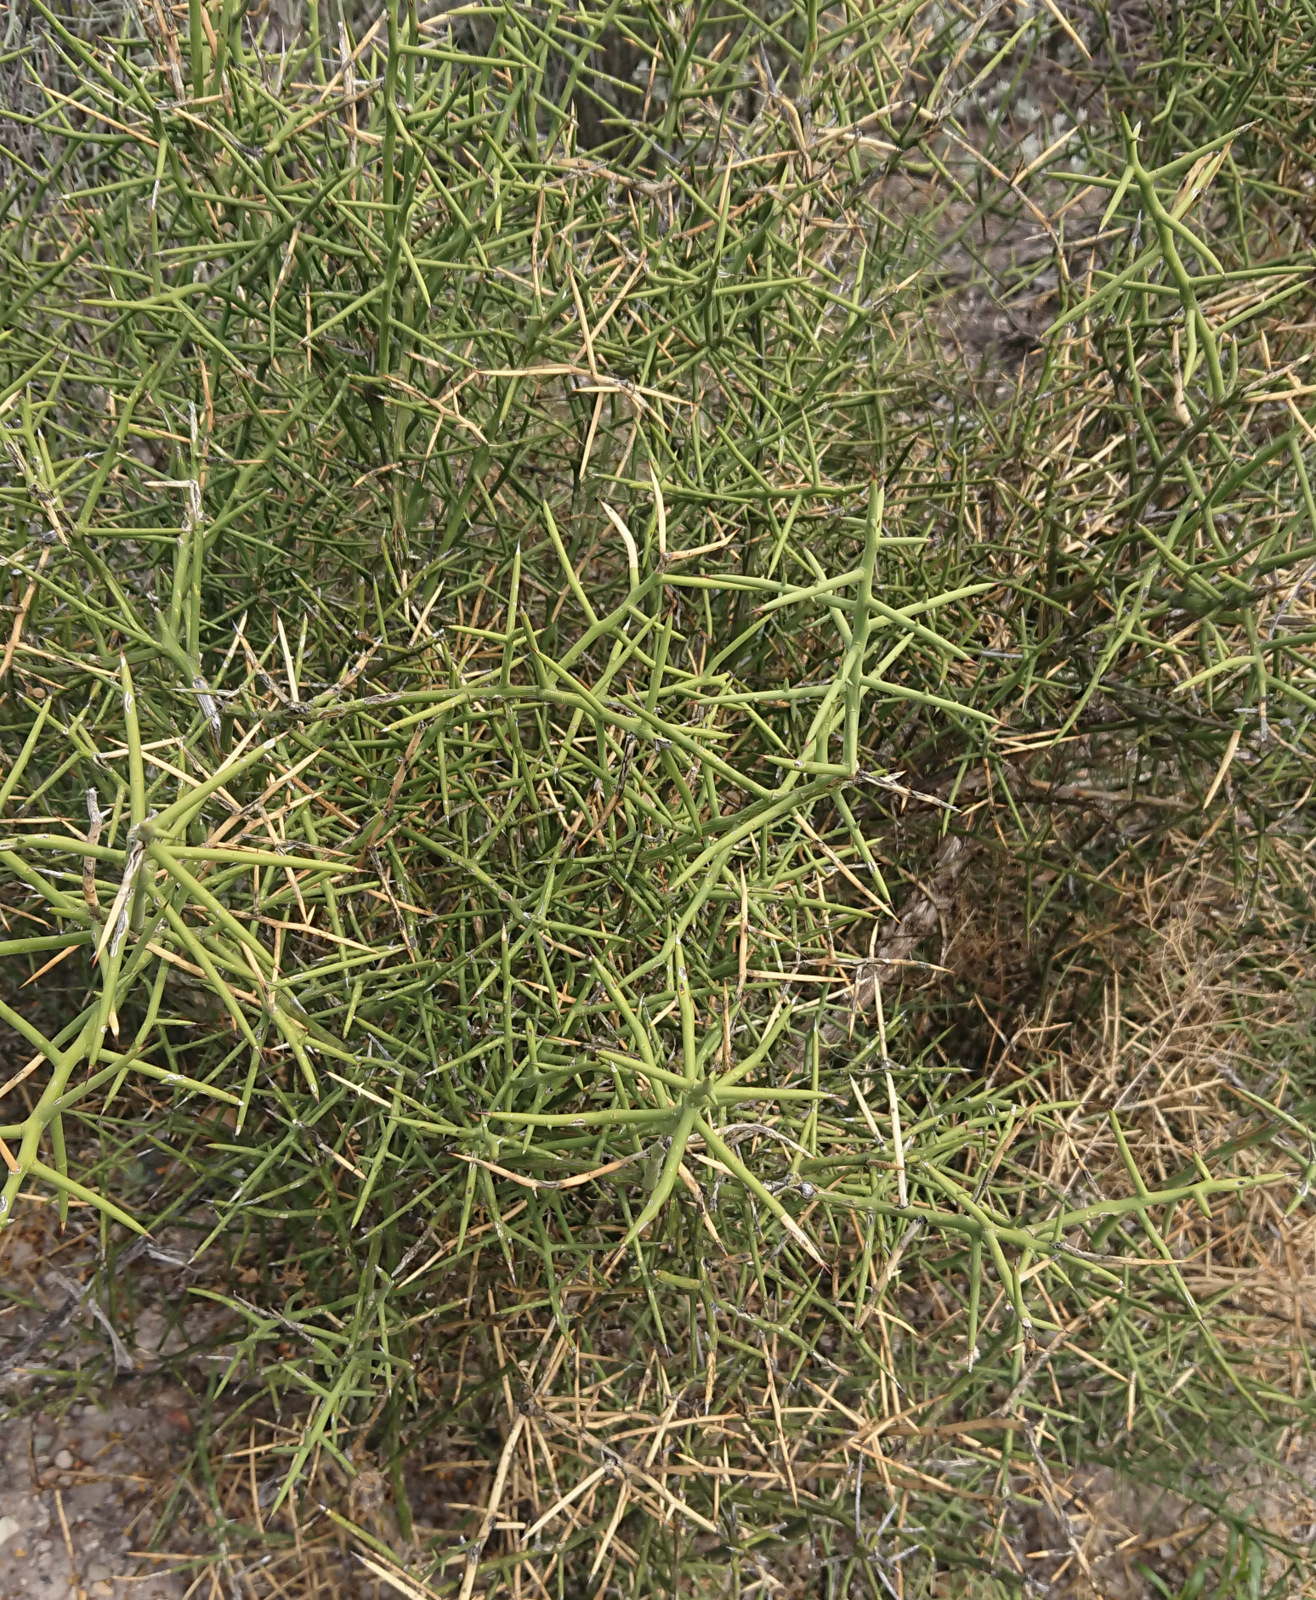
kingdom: Plantae
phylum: Tracheophyta
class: Magnoliopsida
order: Brassicales
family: Koeberliniaceae
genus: Koeberlinia
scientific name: Koeberlinia spinosa
